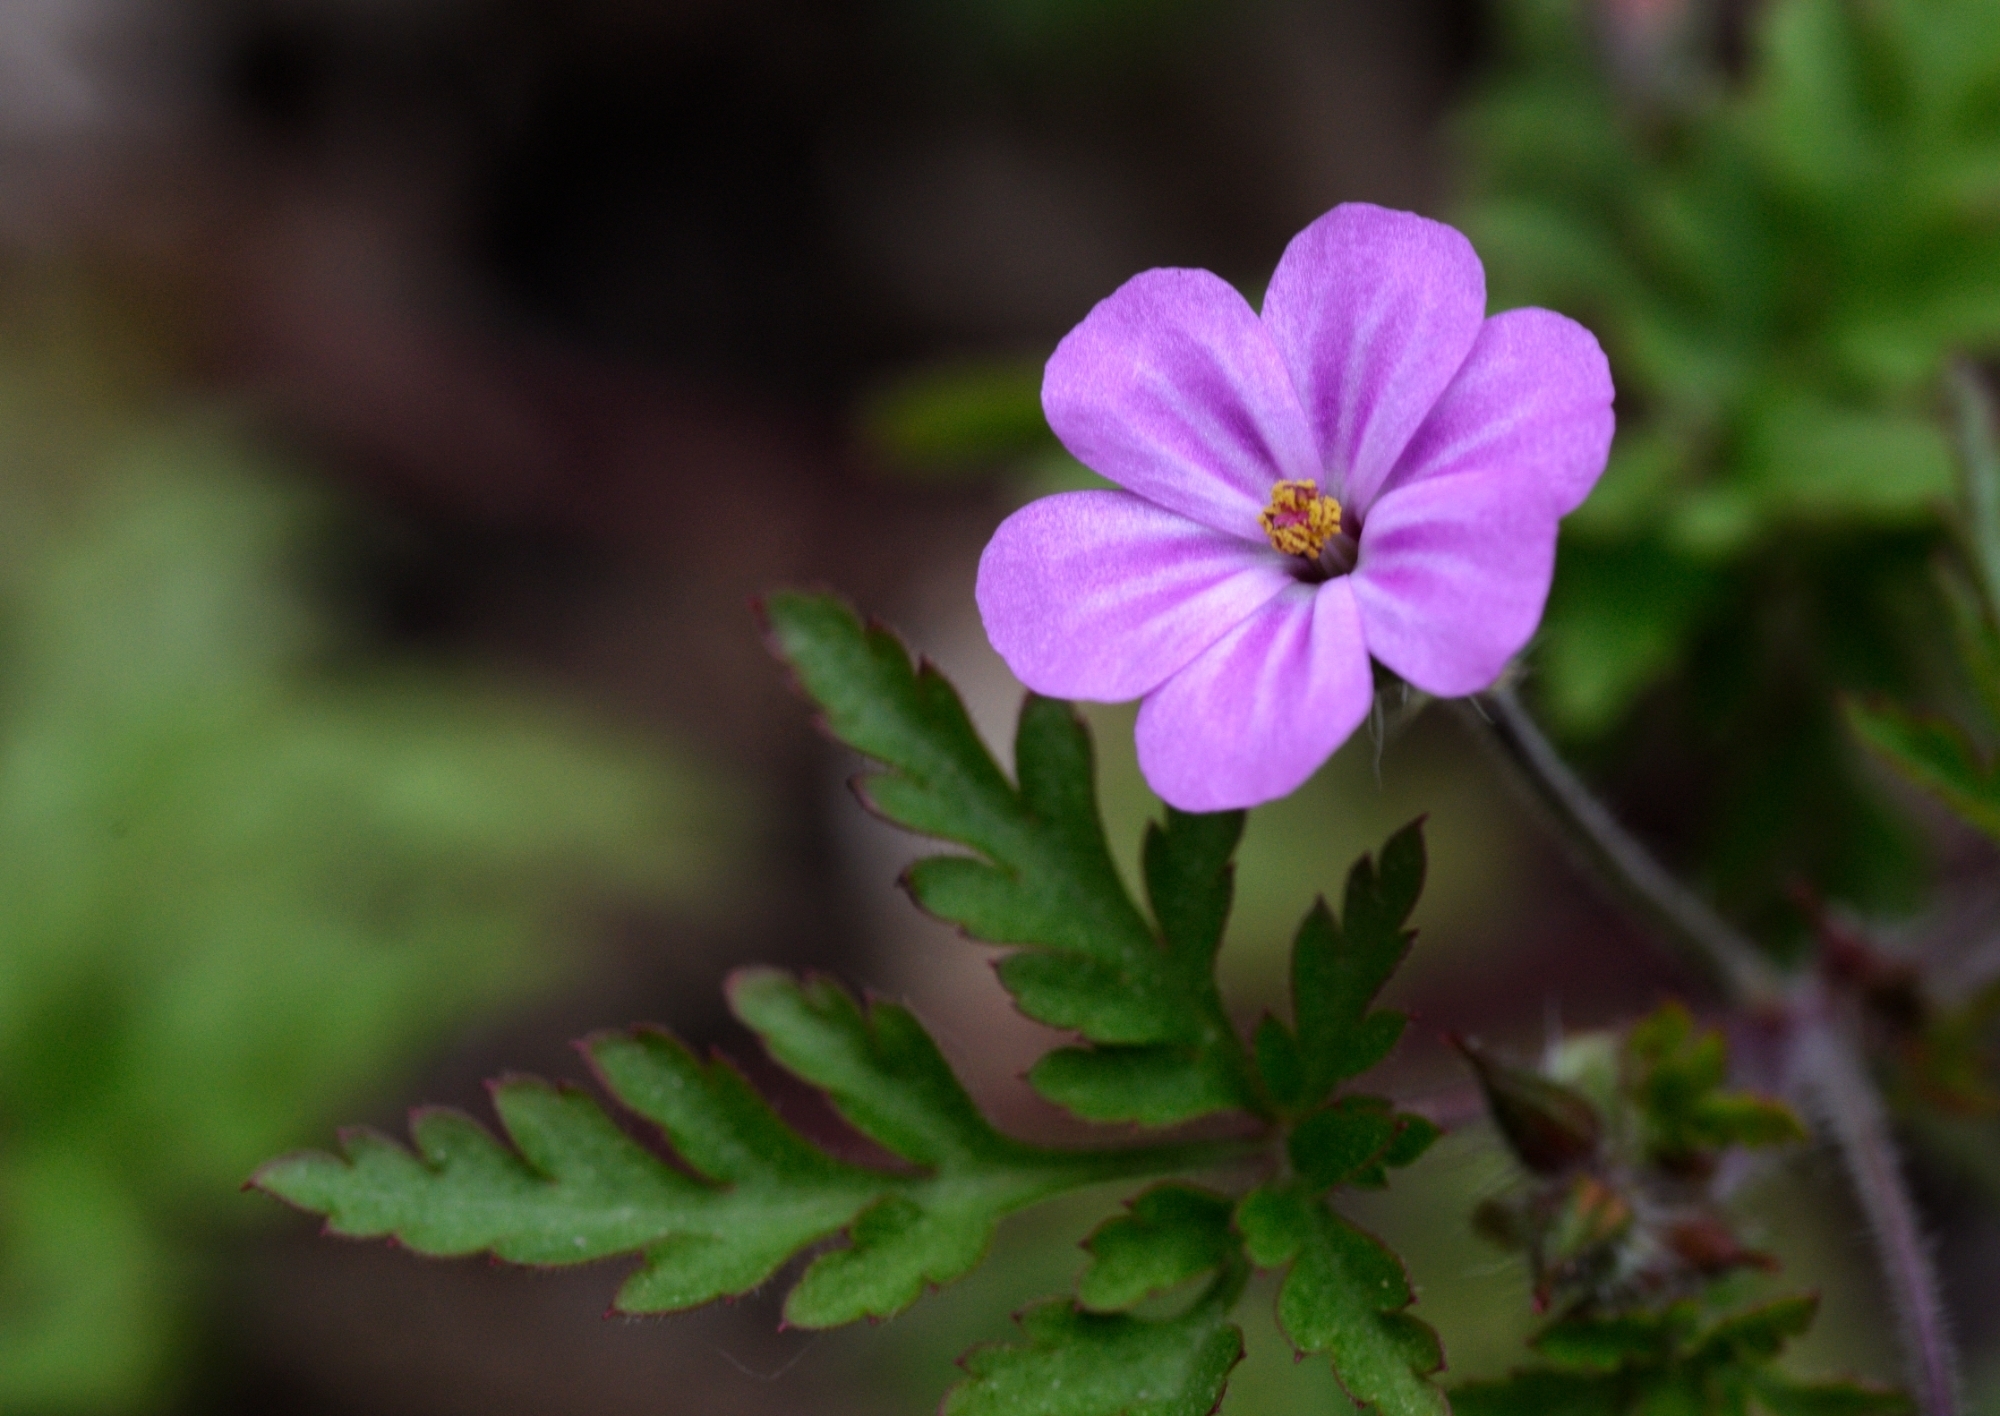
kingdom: Plantae
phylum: Tracheophyta
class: Magnoliopsida
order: Geraniales
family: Geraniaceae
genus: Geranium
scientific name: Geranium robertianum
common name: Herb-robert
